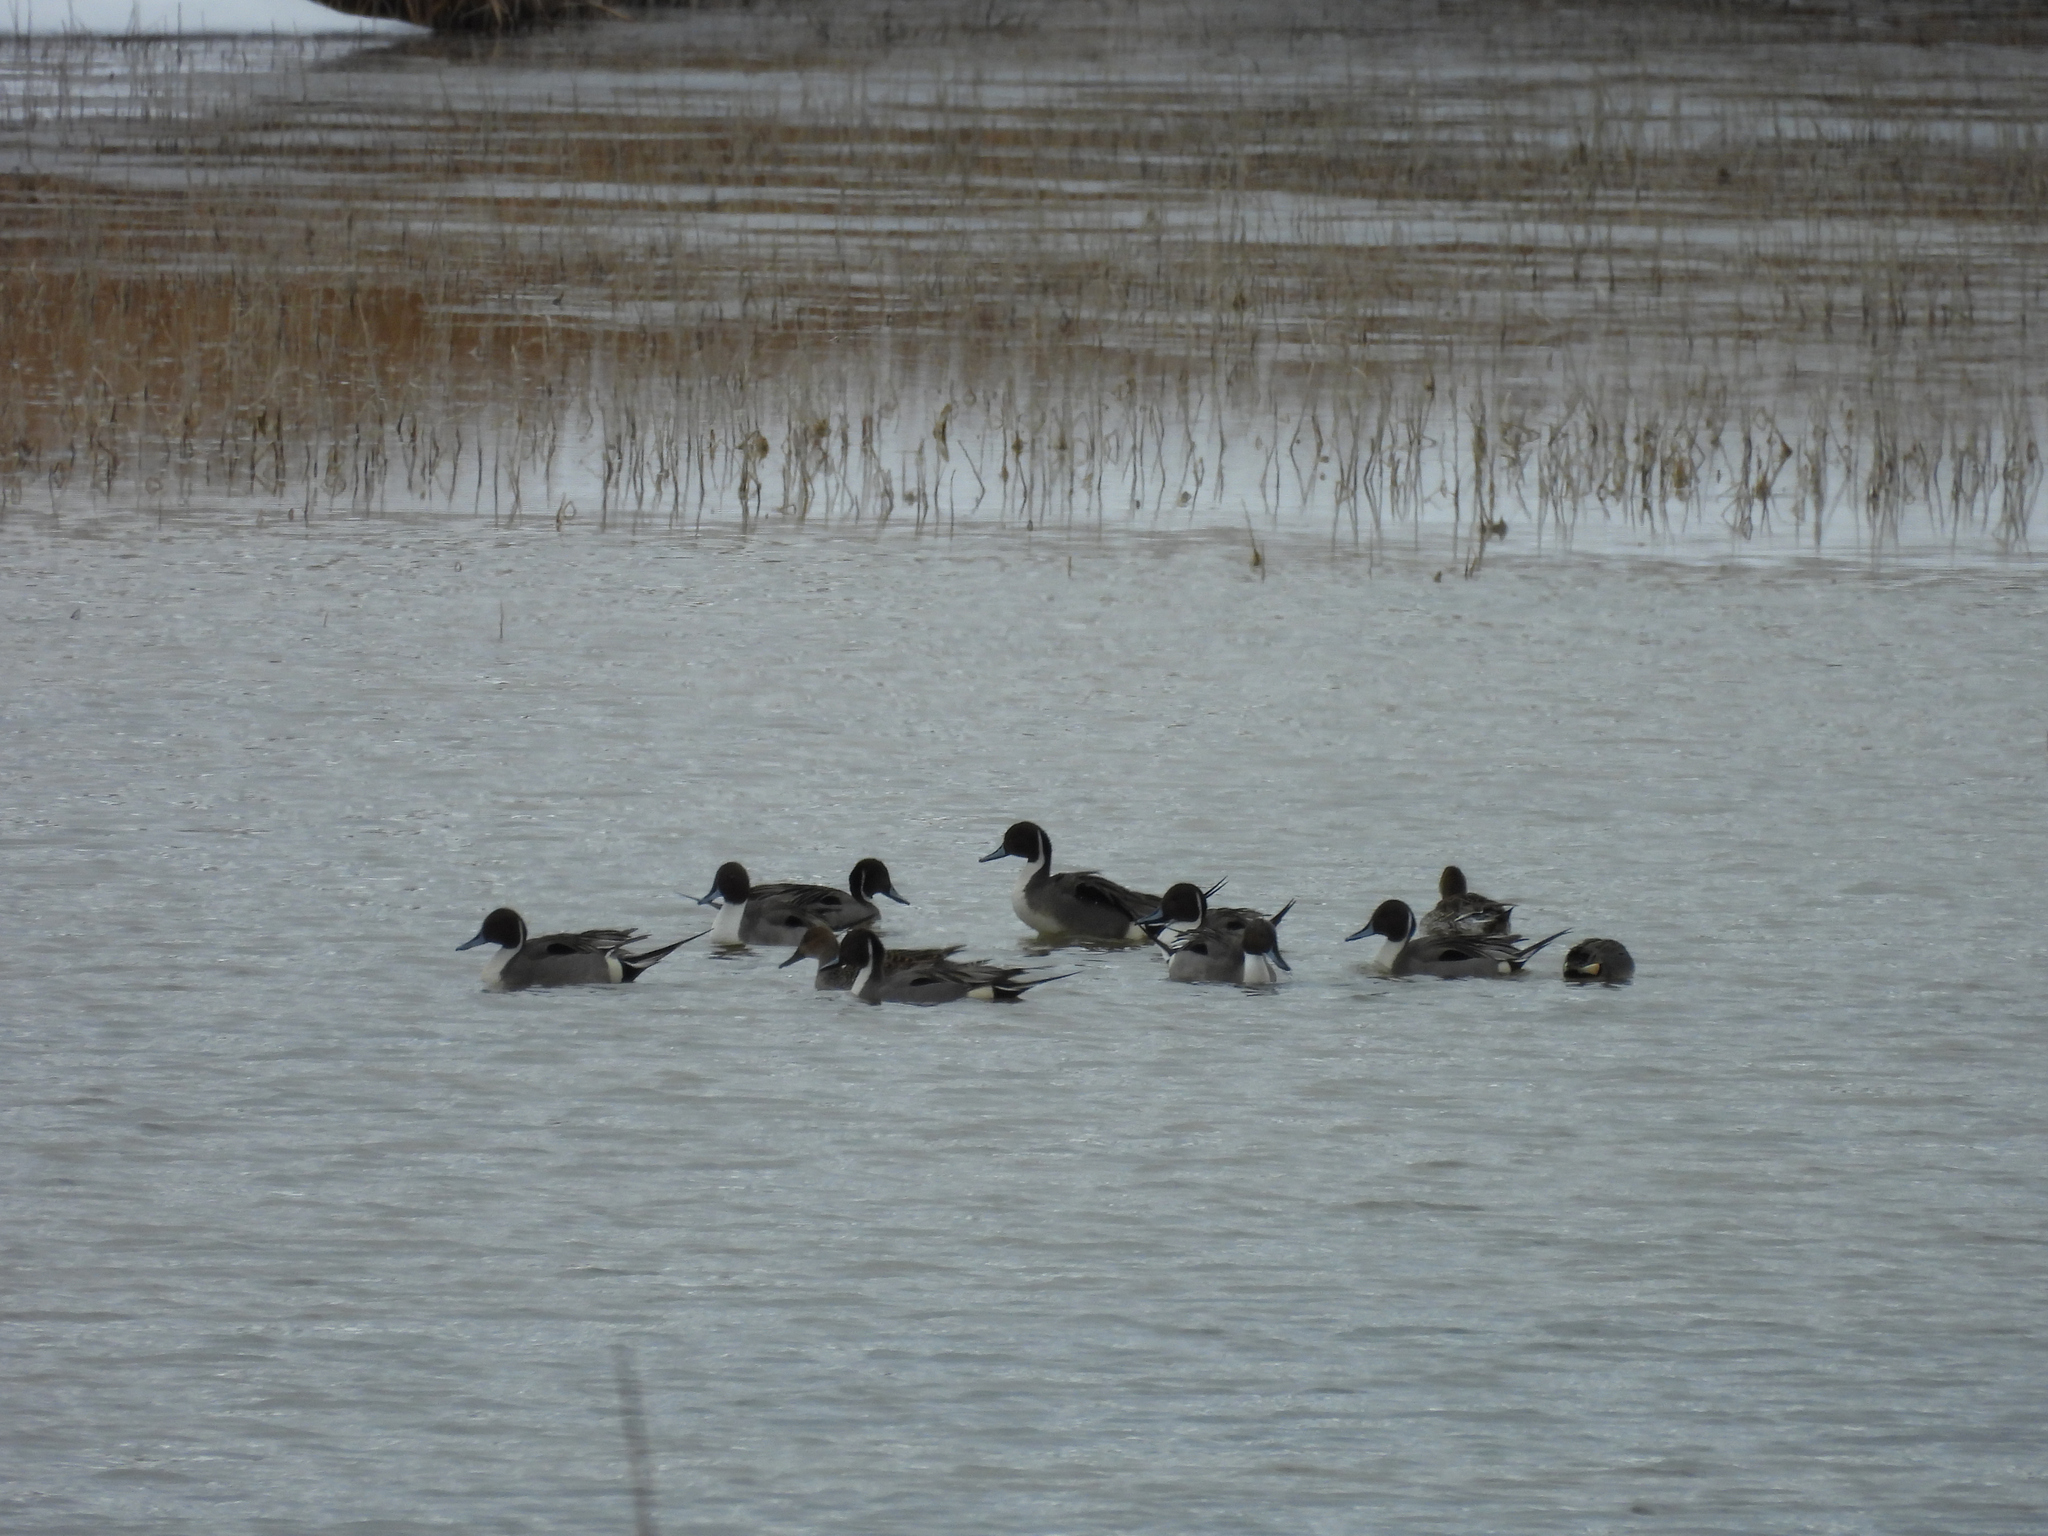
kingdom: Animalia
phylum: Chordata
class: Aves
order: Anseriformes
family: Anatidae
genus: Anas
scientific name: Anas acuta
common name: Northern pintail
